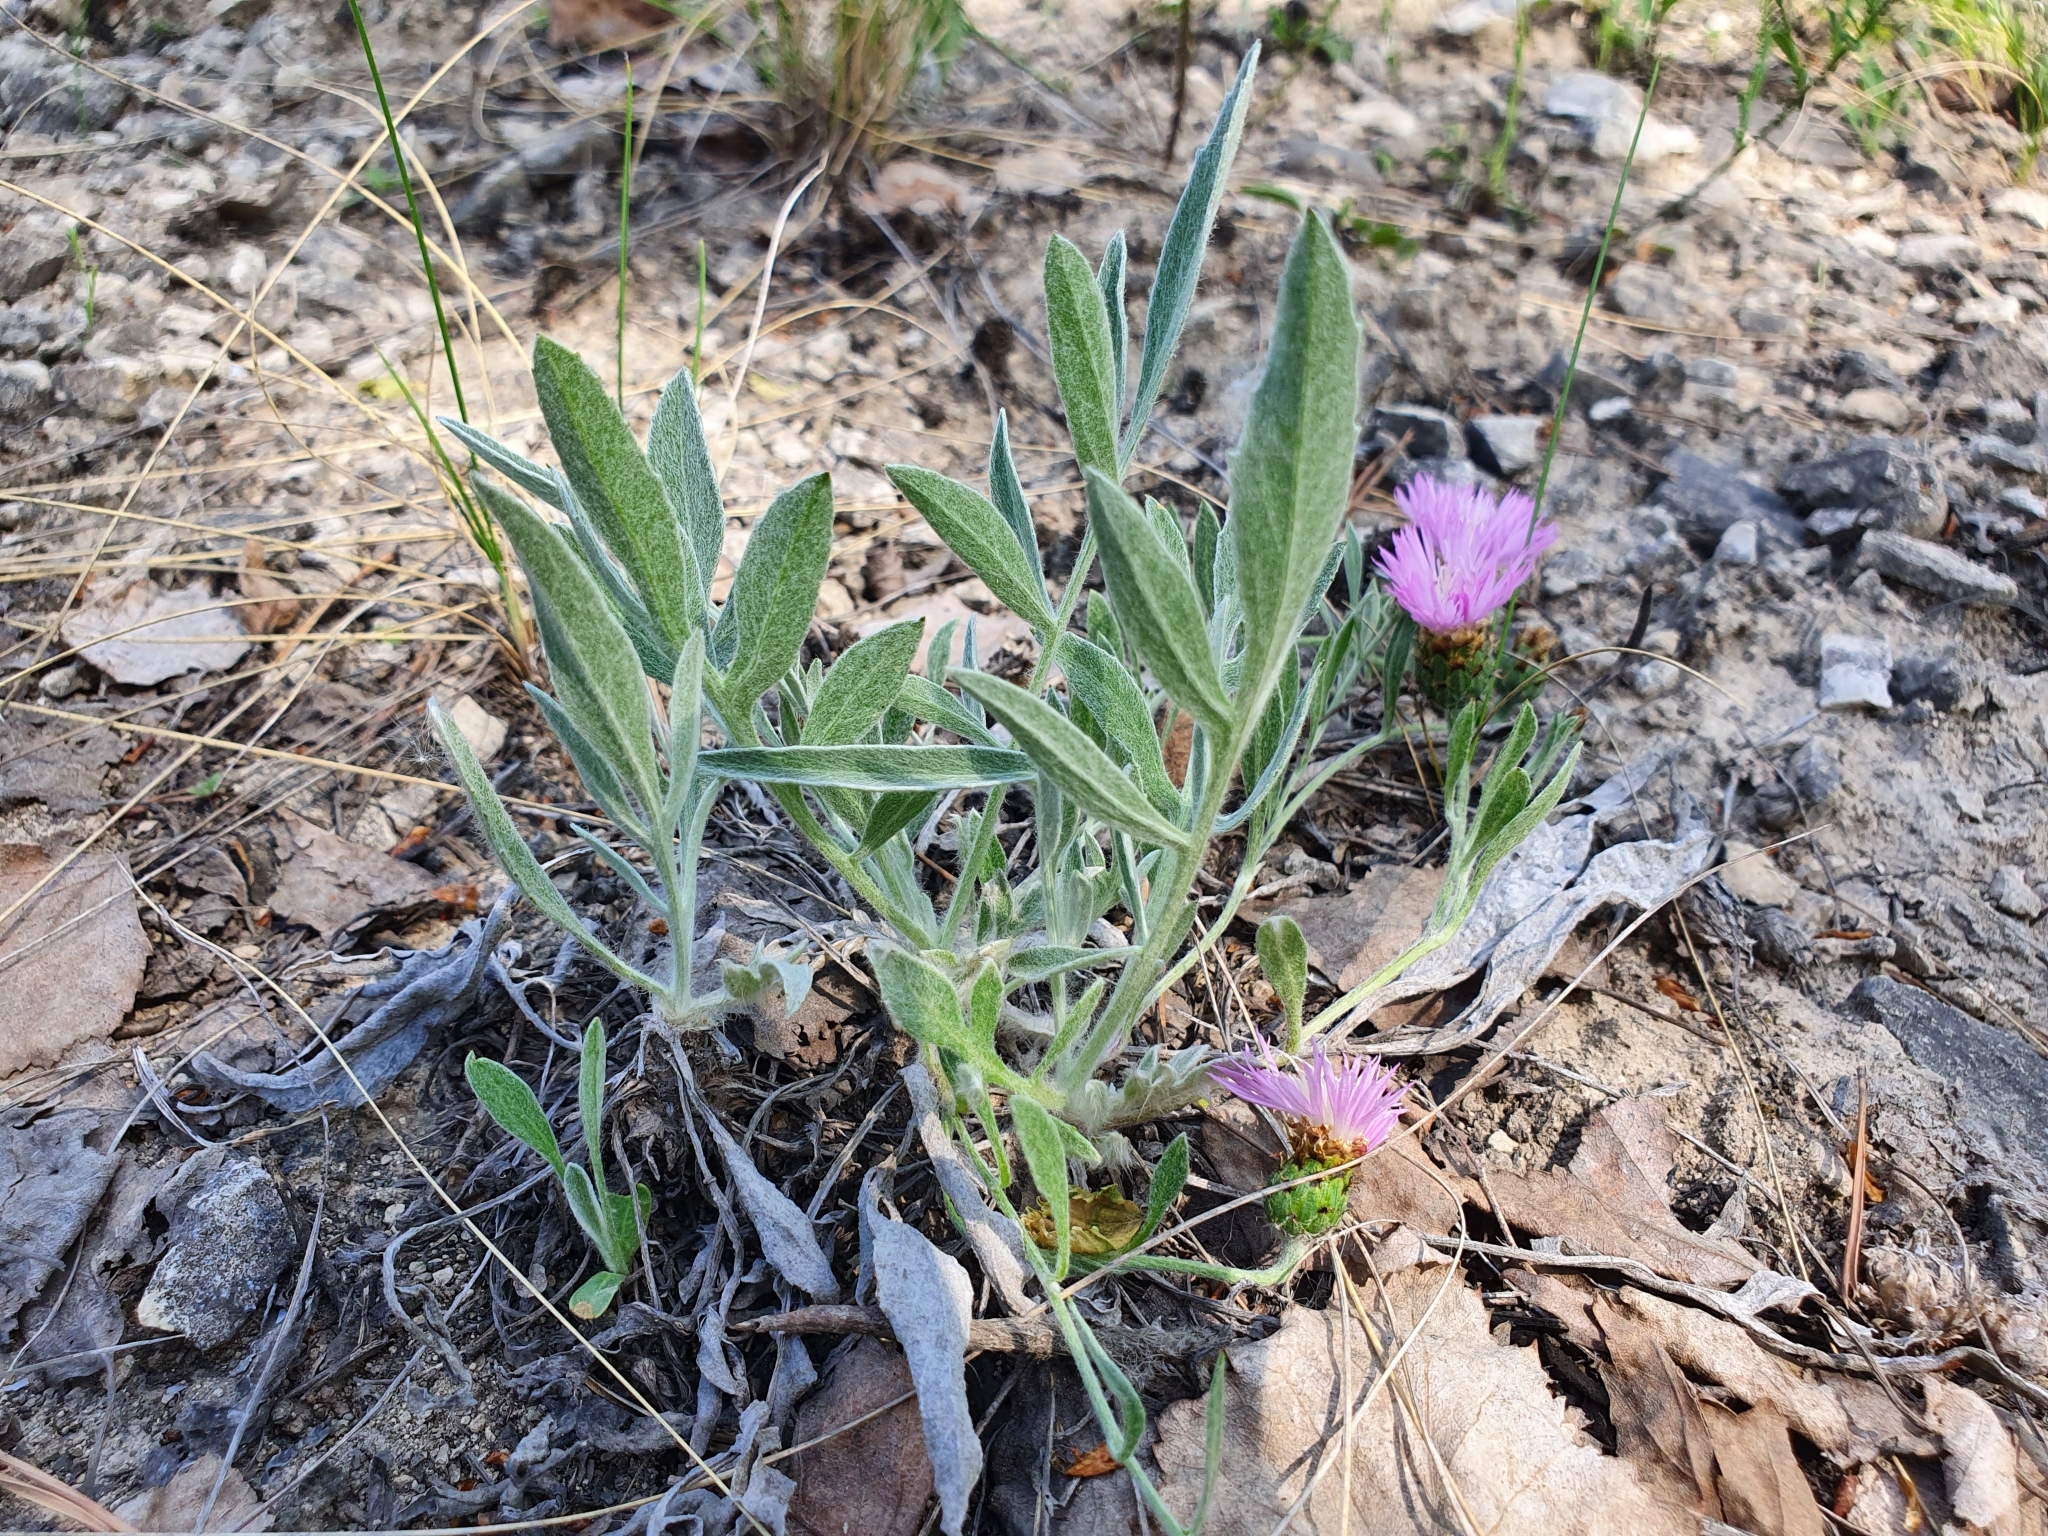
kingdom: Plantae
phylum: Tracheophyta
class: Magnoliopsida
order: Asterales
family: Asteraceae
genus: Psephellus
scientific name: Psephellus marschallianus
